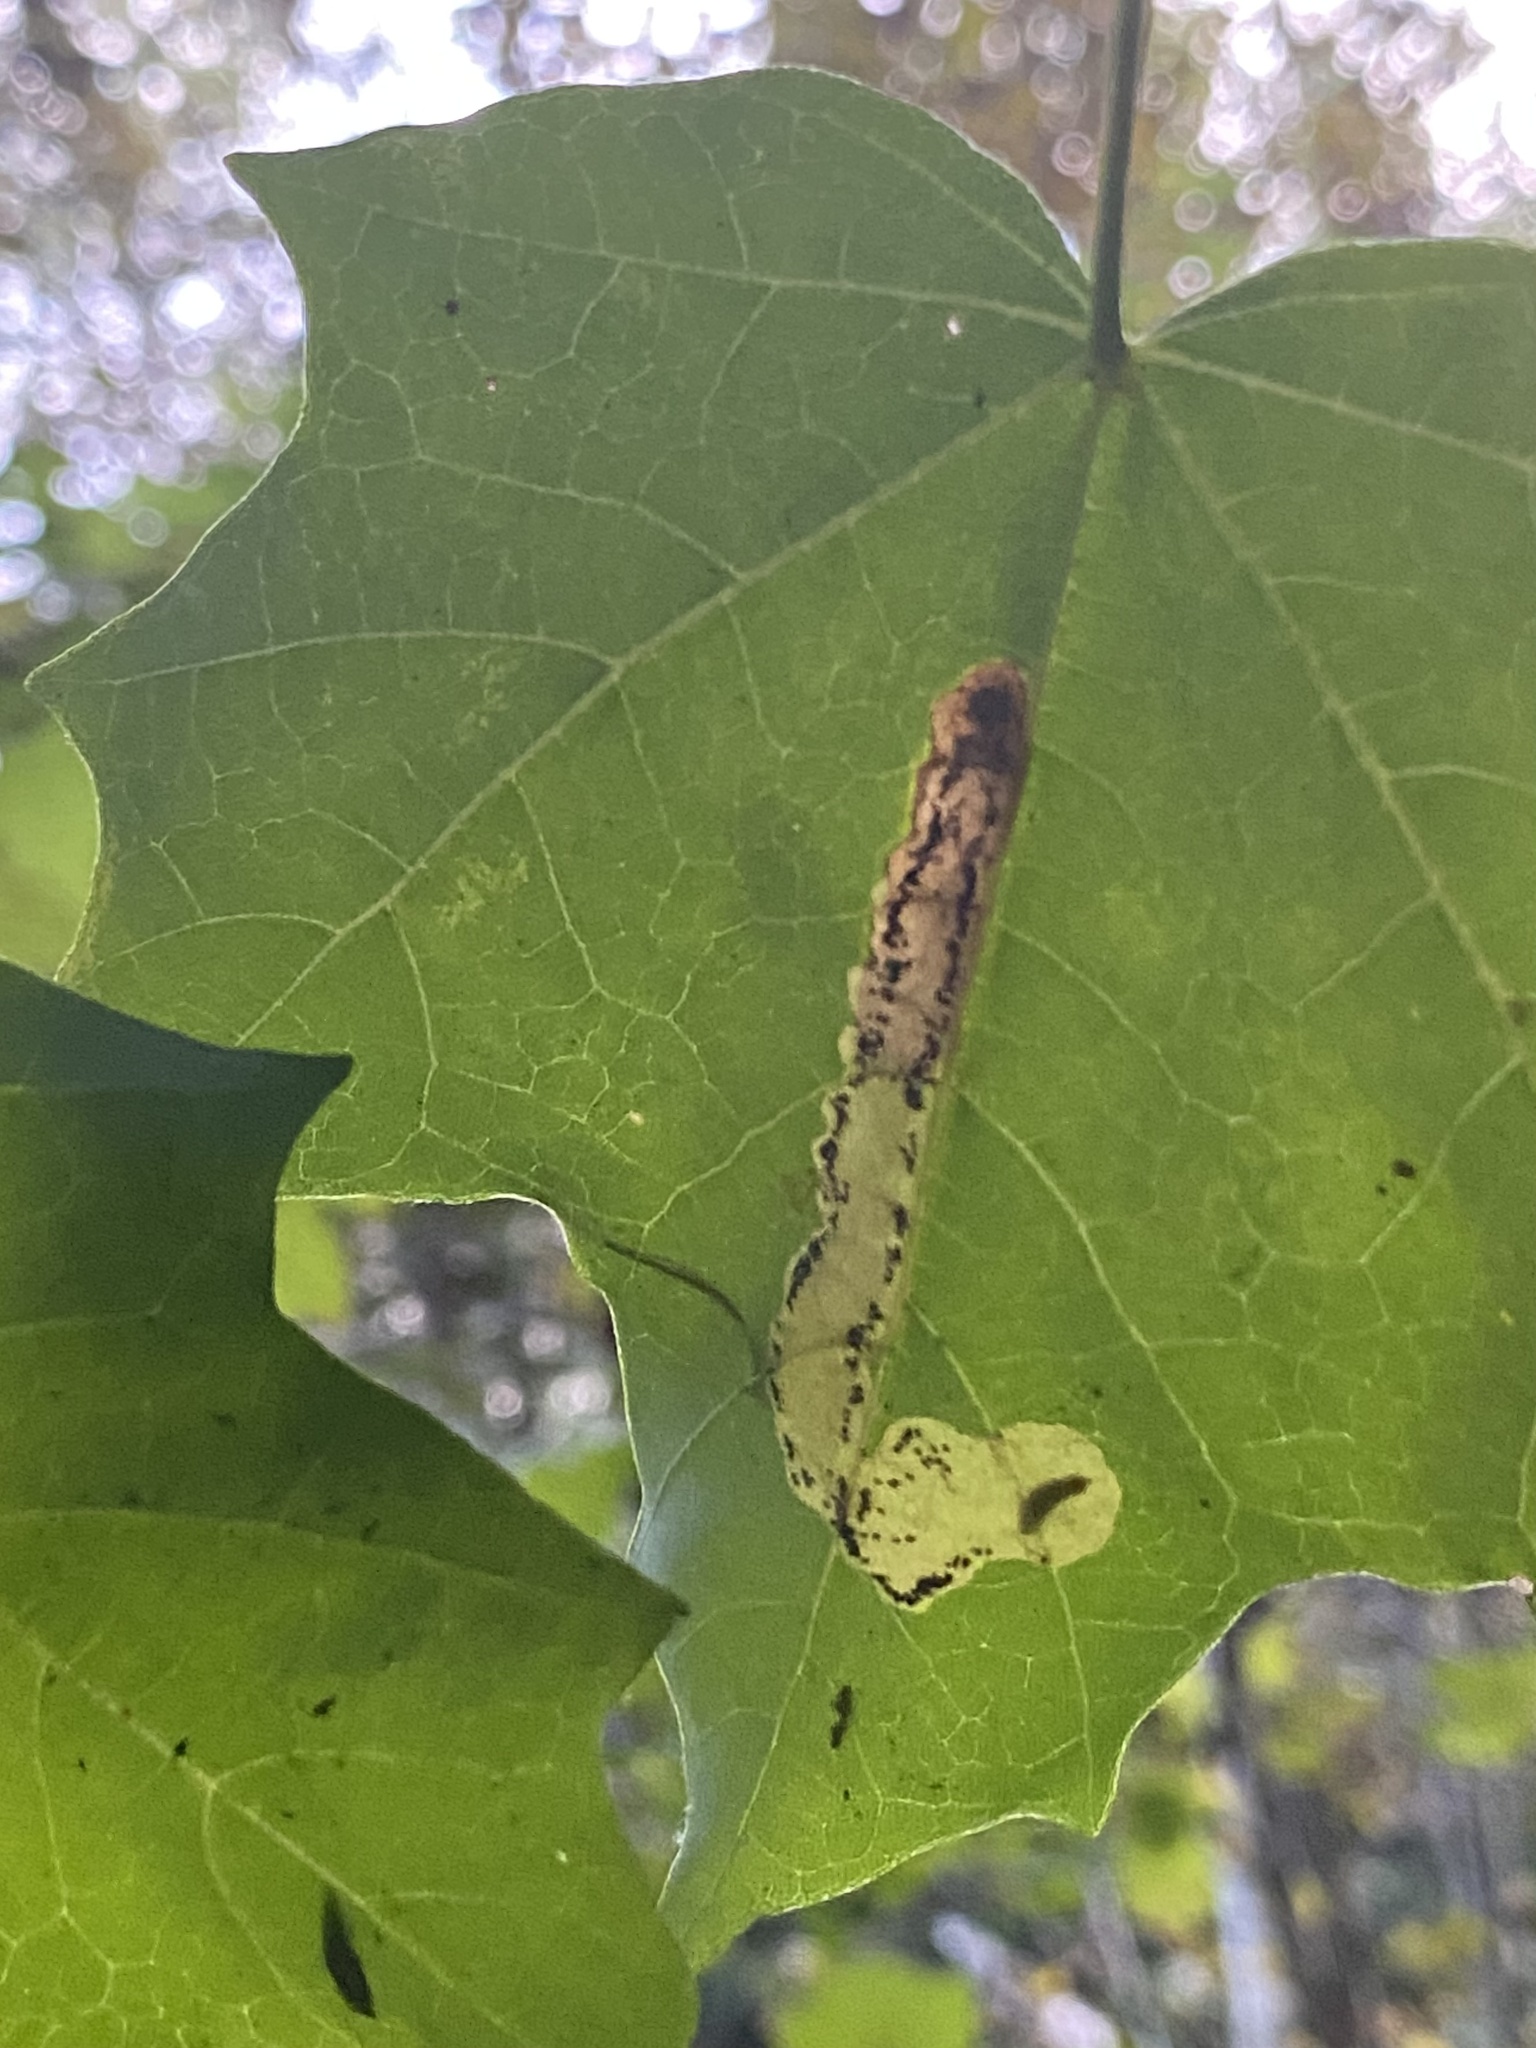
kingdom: Animalia
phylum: Arthropoda
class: Insecta
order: Lepidoptera
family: Gracillariidae
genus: Cameraria
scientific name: Cameraria aceriella
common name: Maple leafblotch miner
